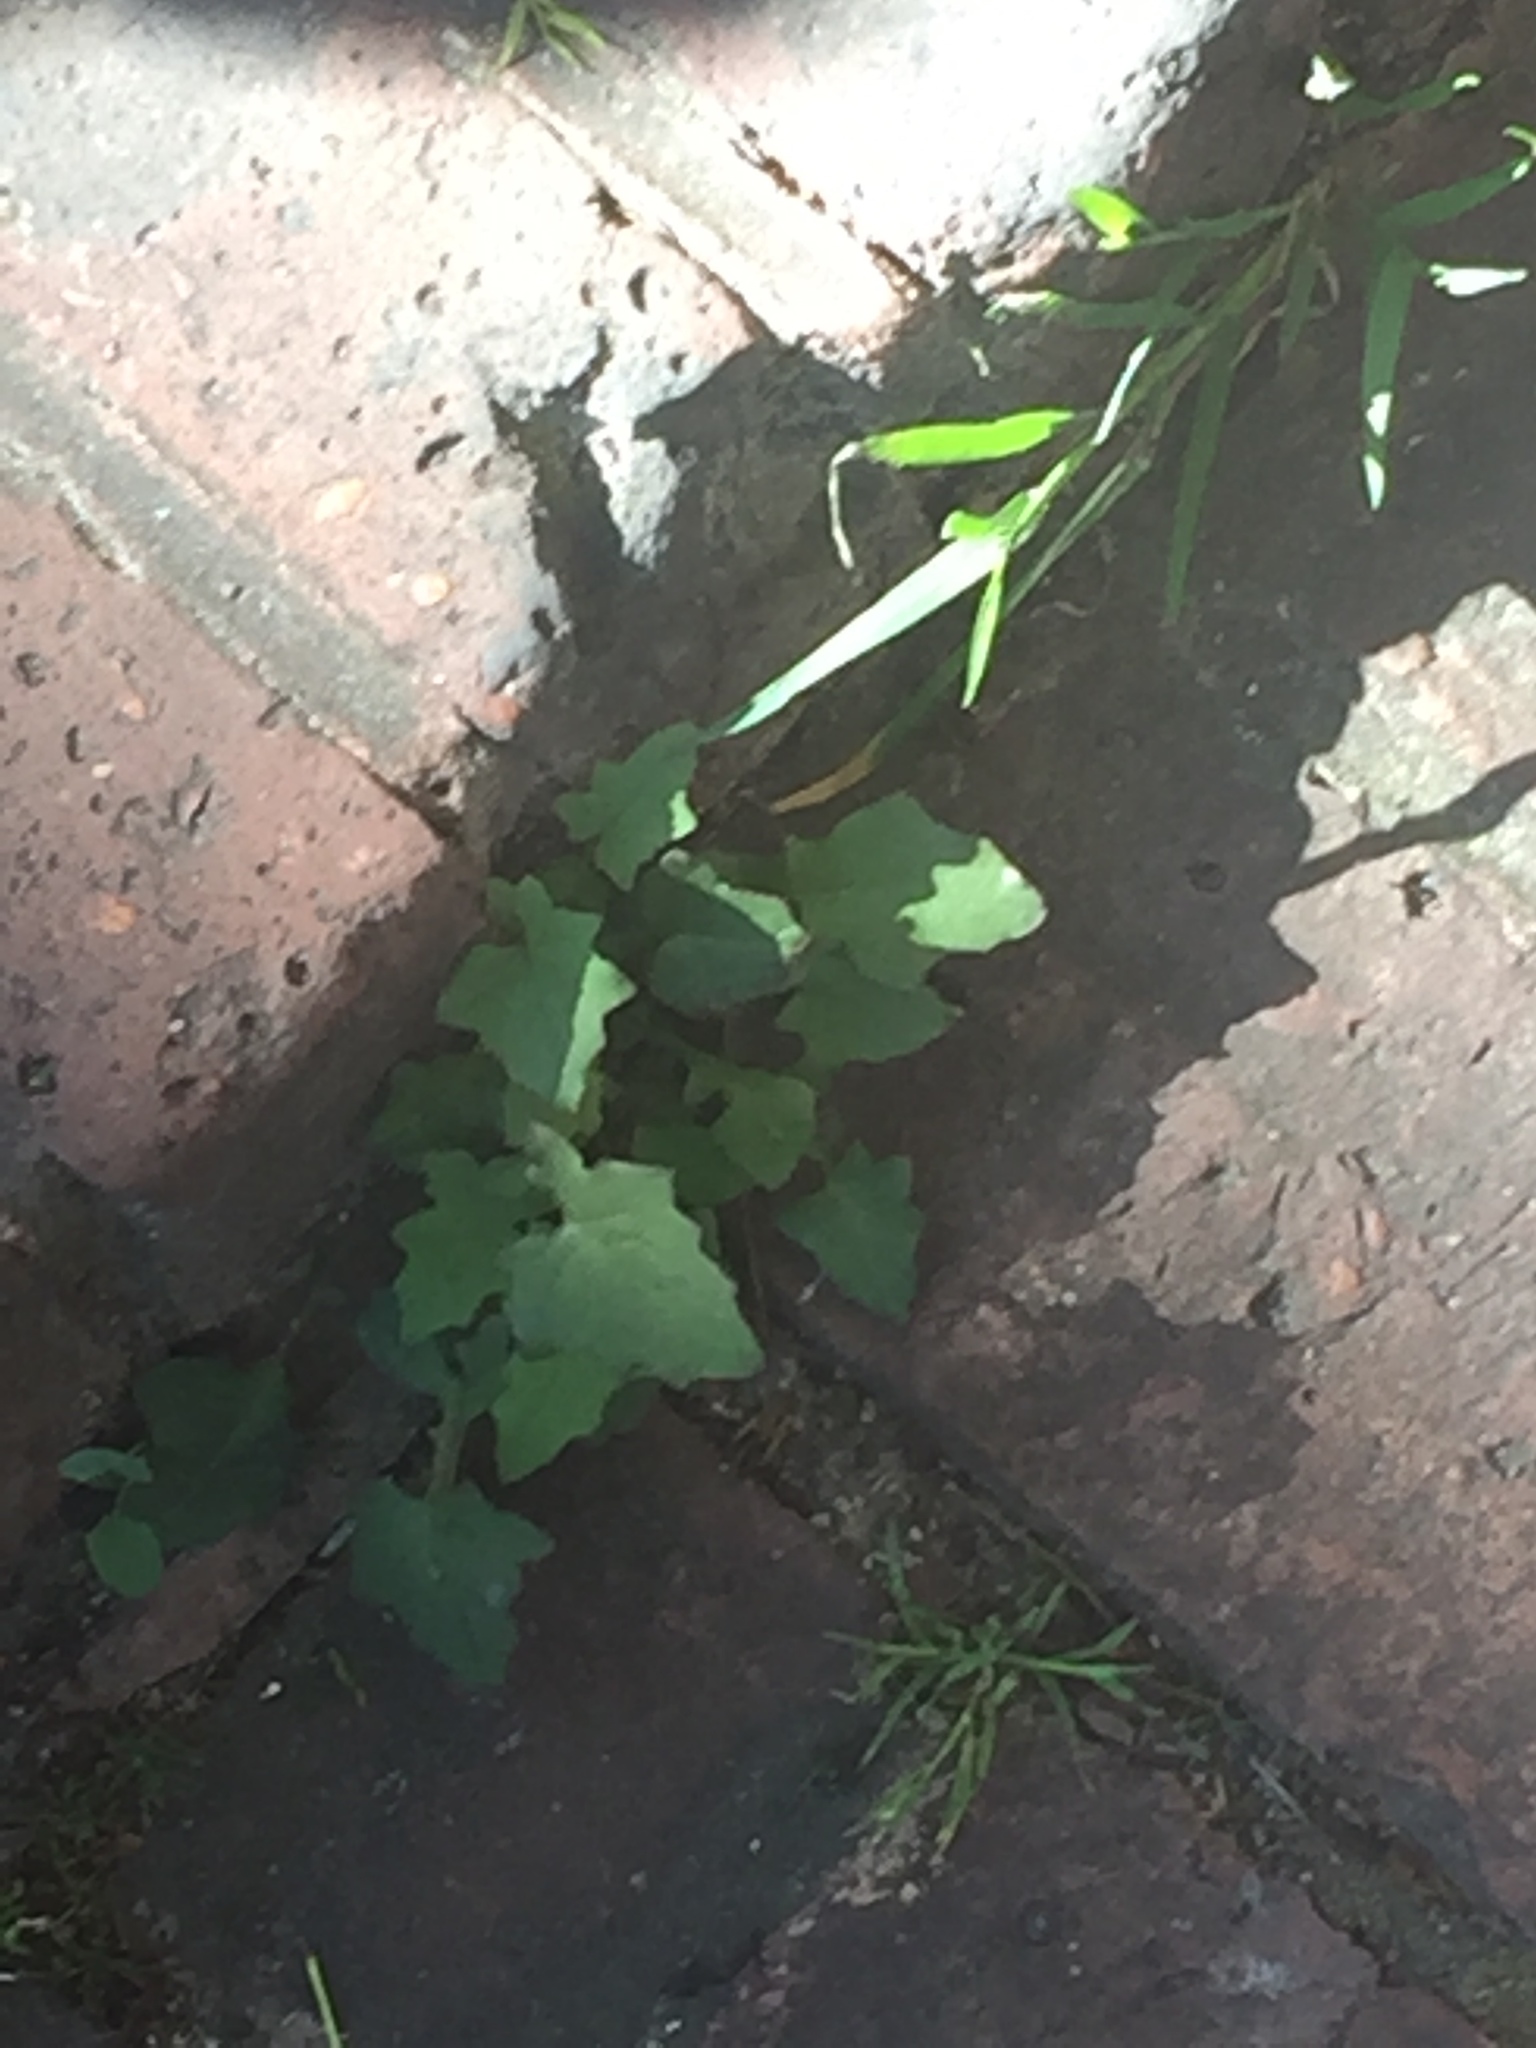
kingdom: Plantae
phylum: Tracheophyta
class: Magnoliopsida
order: Asterales
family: Asteraceae
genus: Mycelis
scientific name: Mycelis muralis
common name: Wall lettuce
